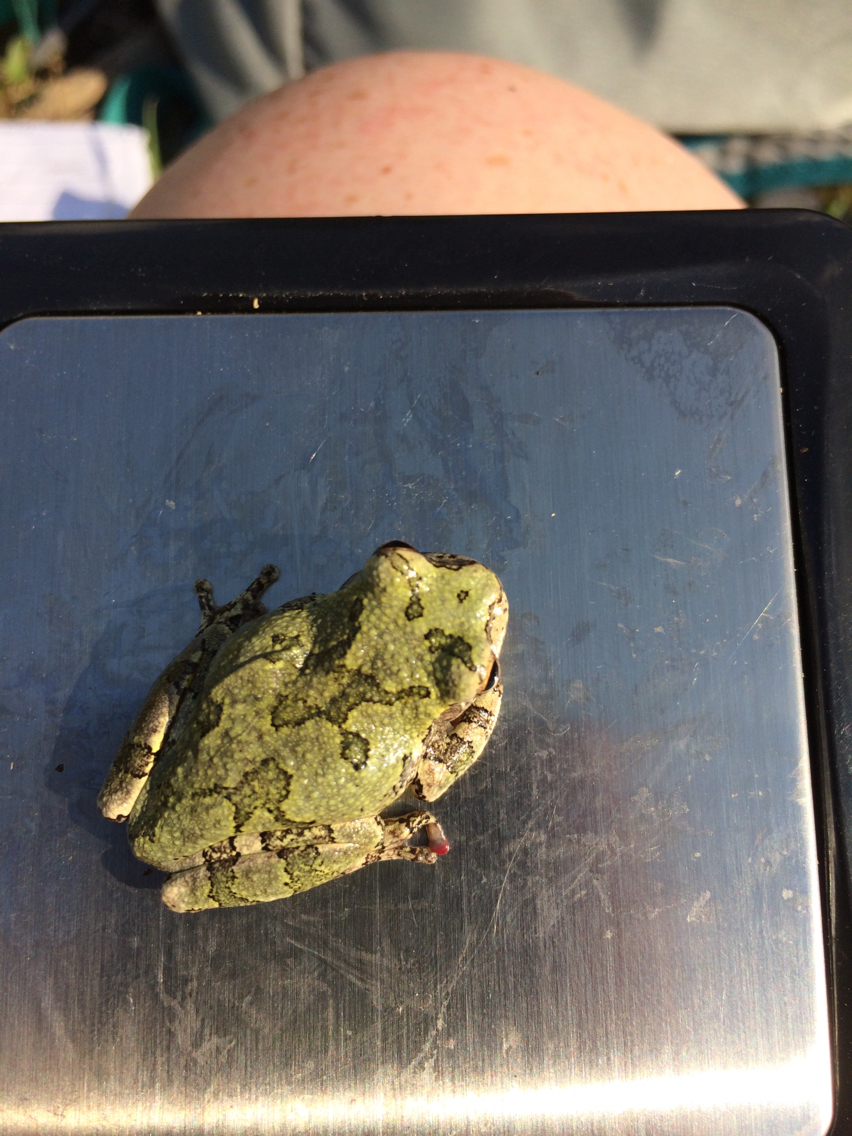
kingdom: Animalia
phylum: Chordata
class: Amphibia
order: Anura
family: Hylidae
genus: Dryophytes
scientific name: Dryophytes versicolor
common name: Gray treefrog
